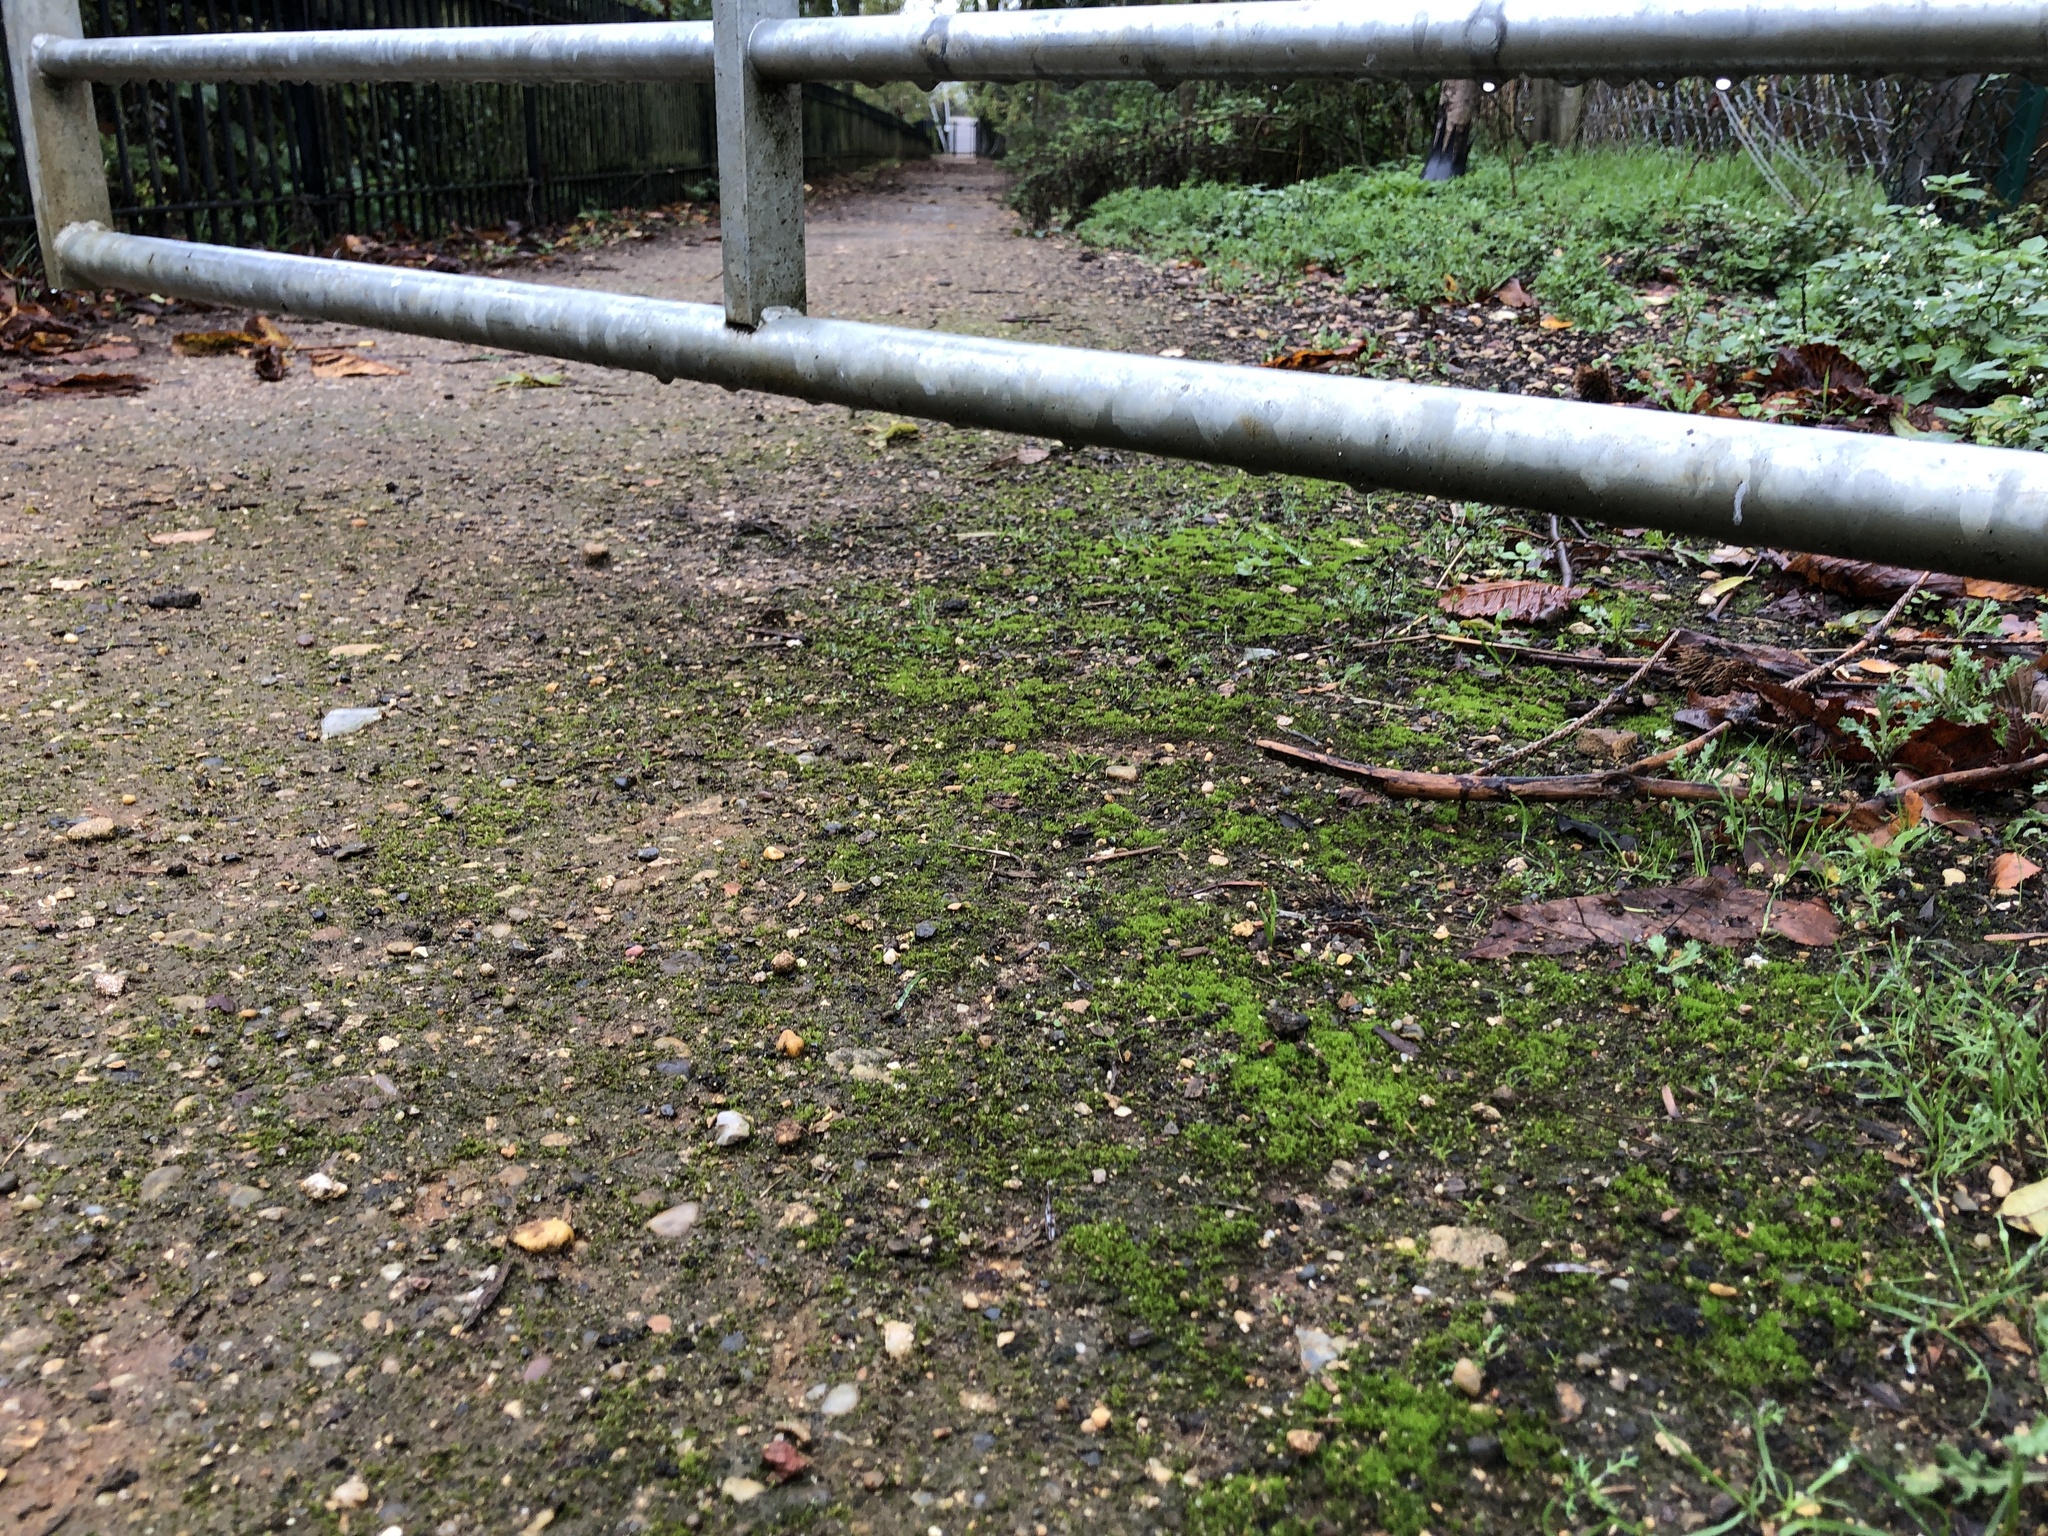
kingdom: Plantae
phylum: Bryophyta
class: Bryopsida
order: Dicranales
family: Ditrichaceae
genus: Ceratodon
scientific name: Ceratodon purpureus
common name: Redshank
